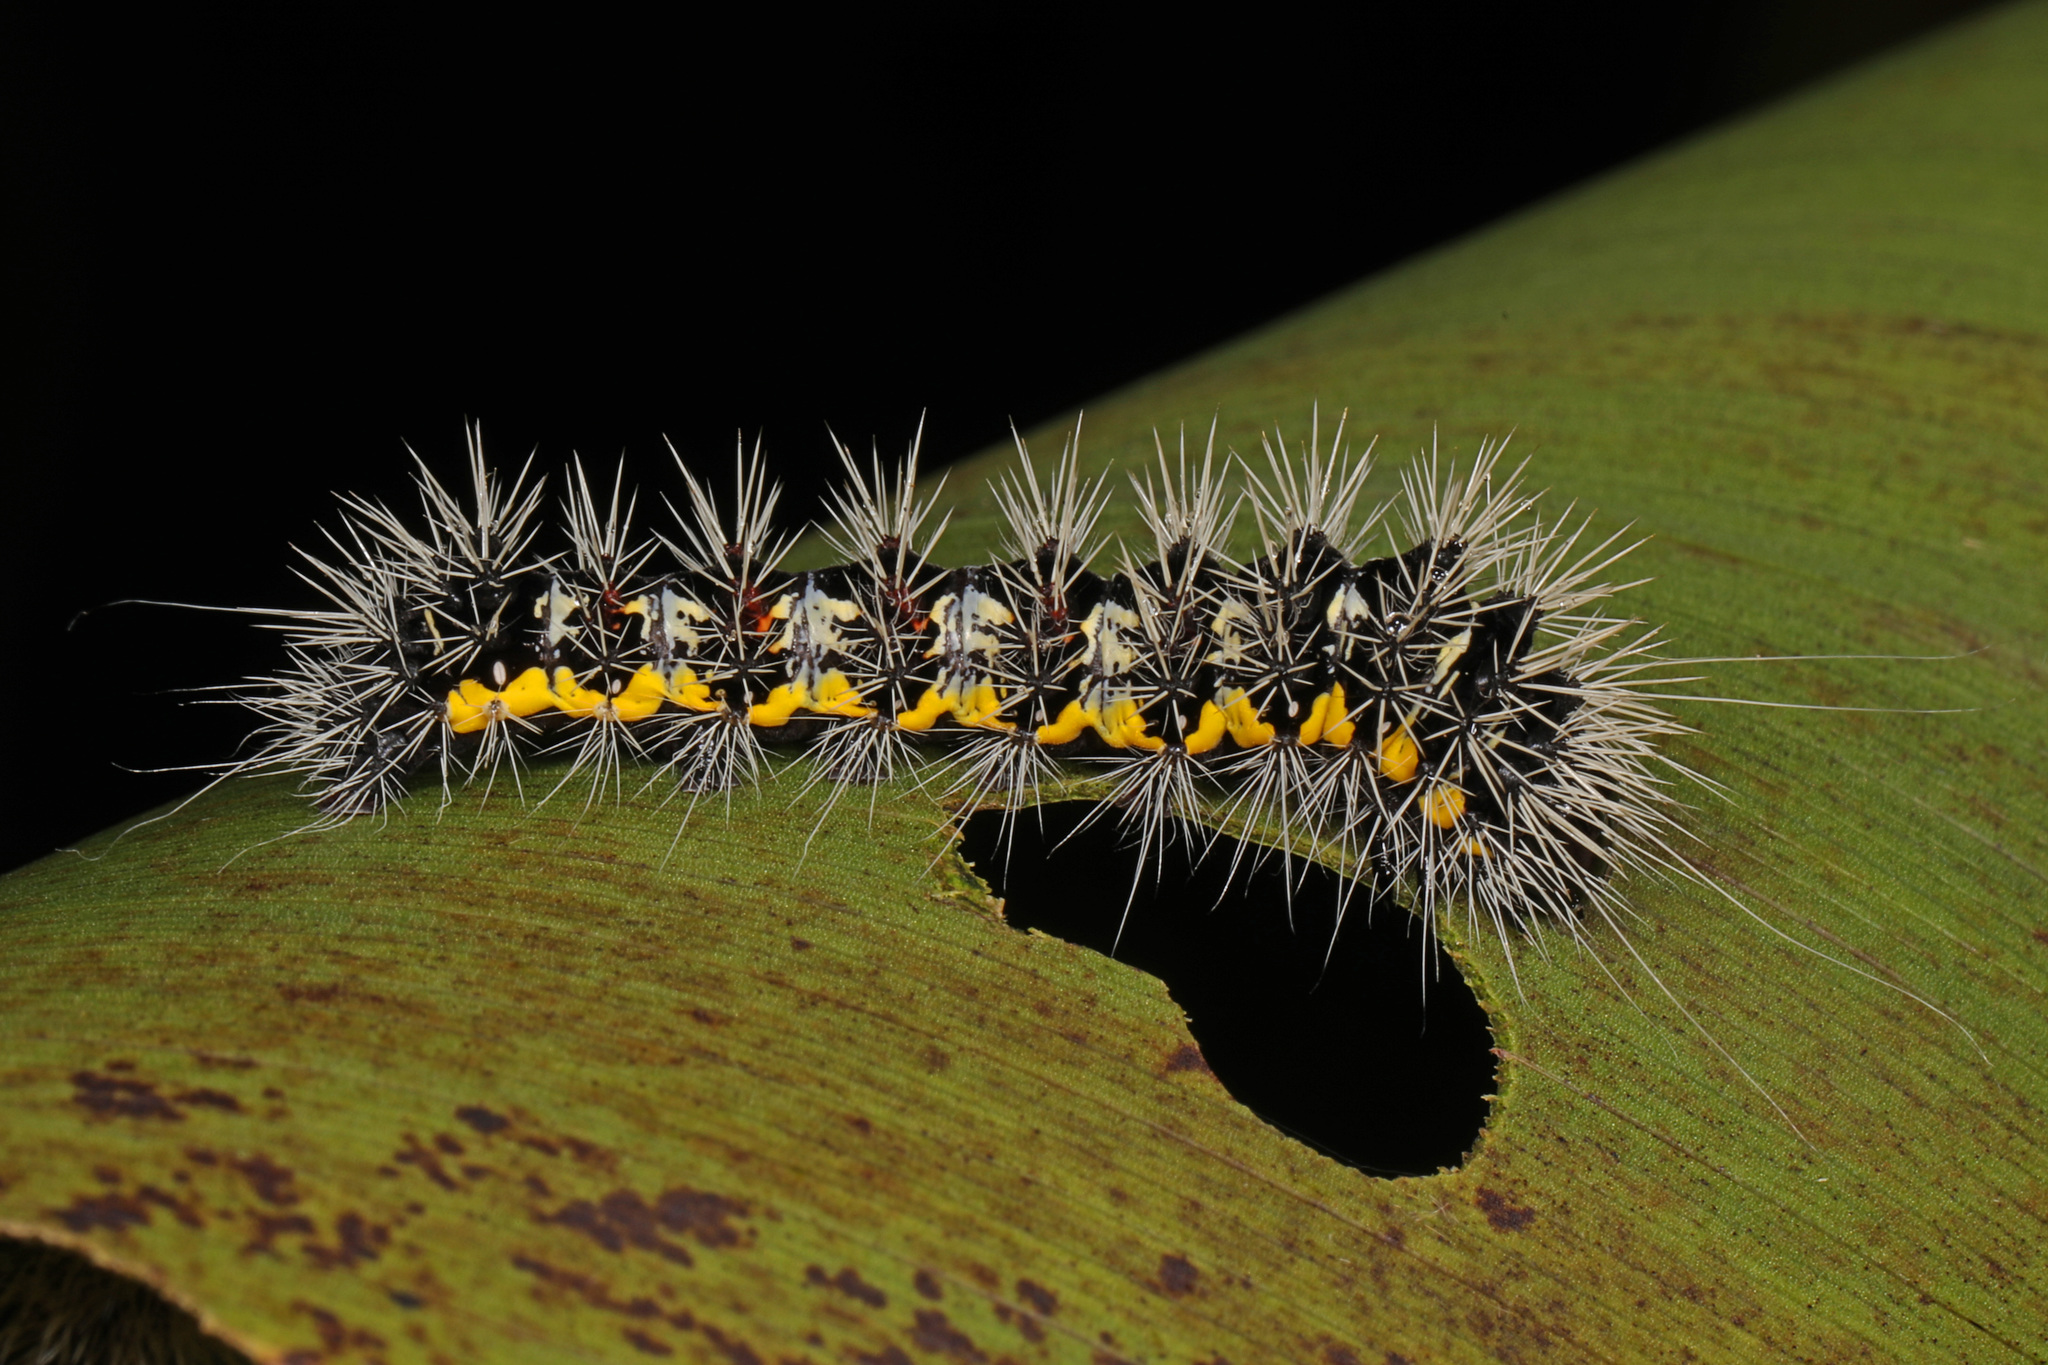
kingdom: Animalia
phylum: Arthropoda
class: Insecta
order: Lepidoptera
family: Noctuidae
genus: Acronicta
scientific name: Acronicta oblinita
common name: Smeared dagger
